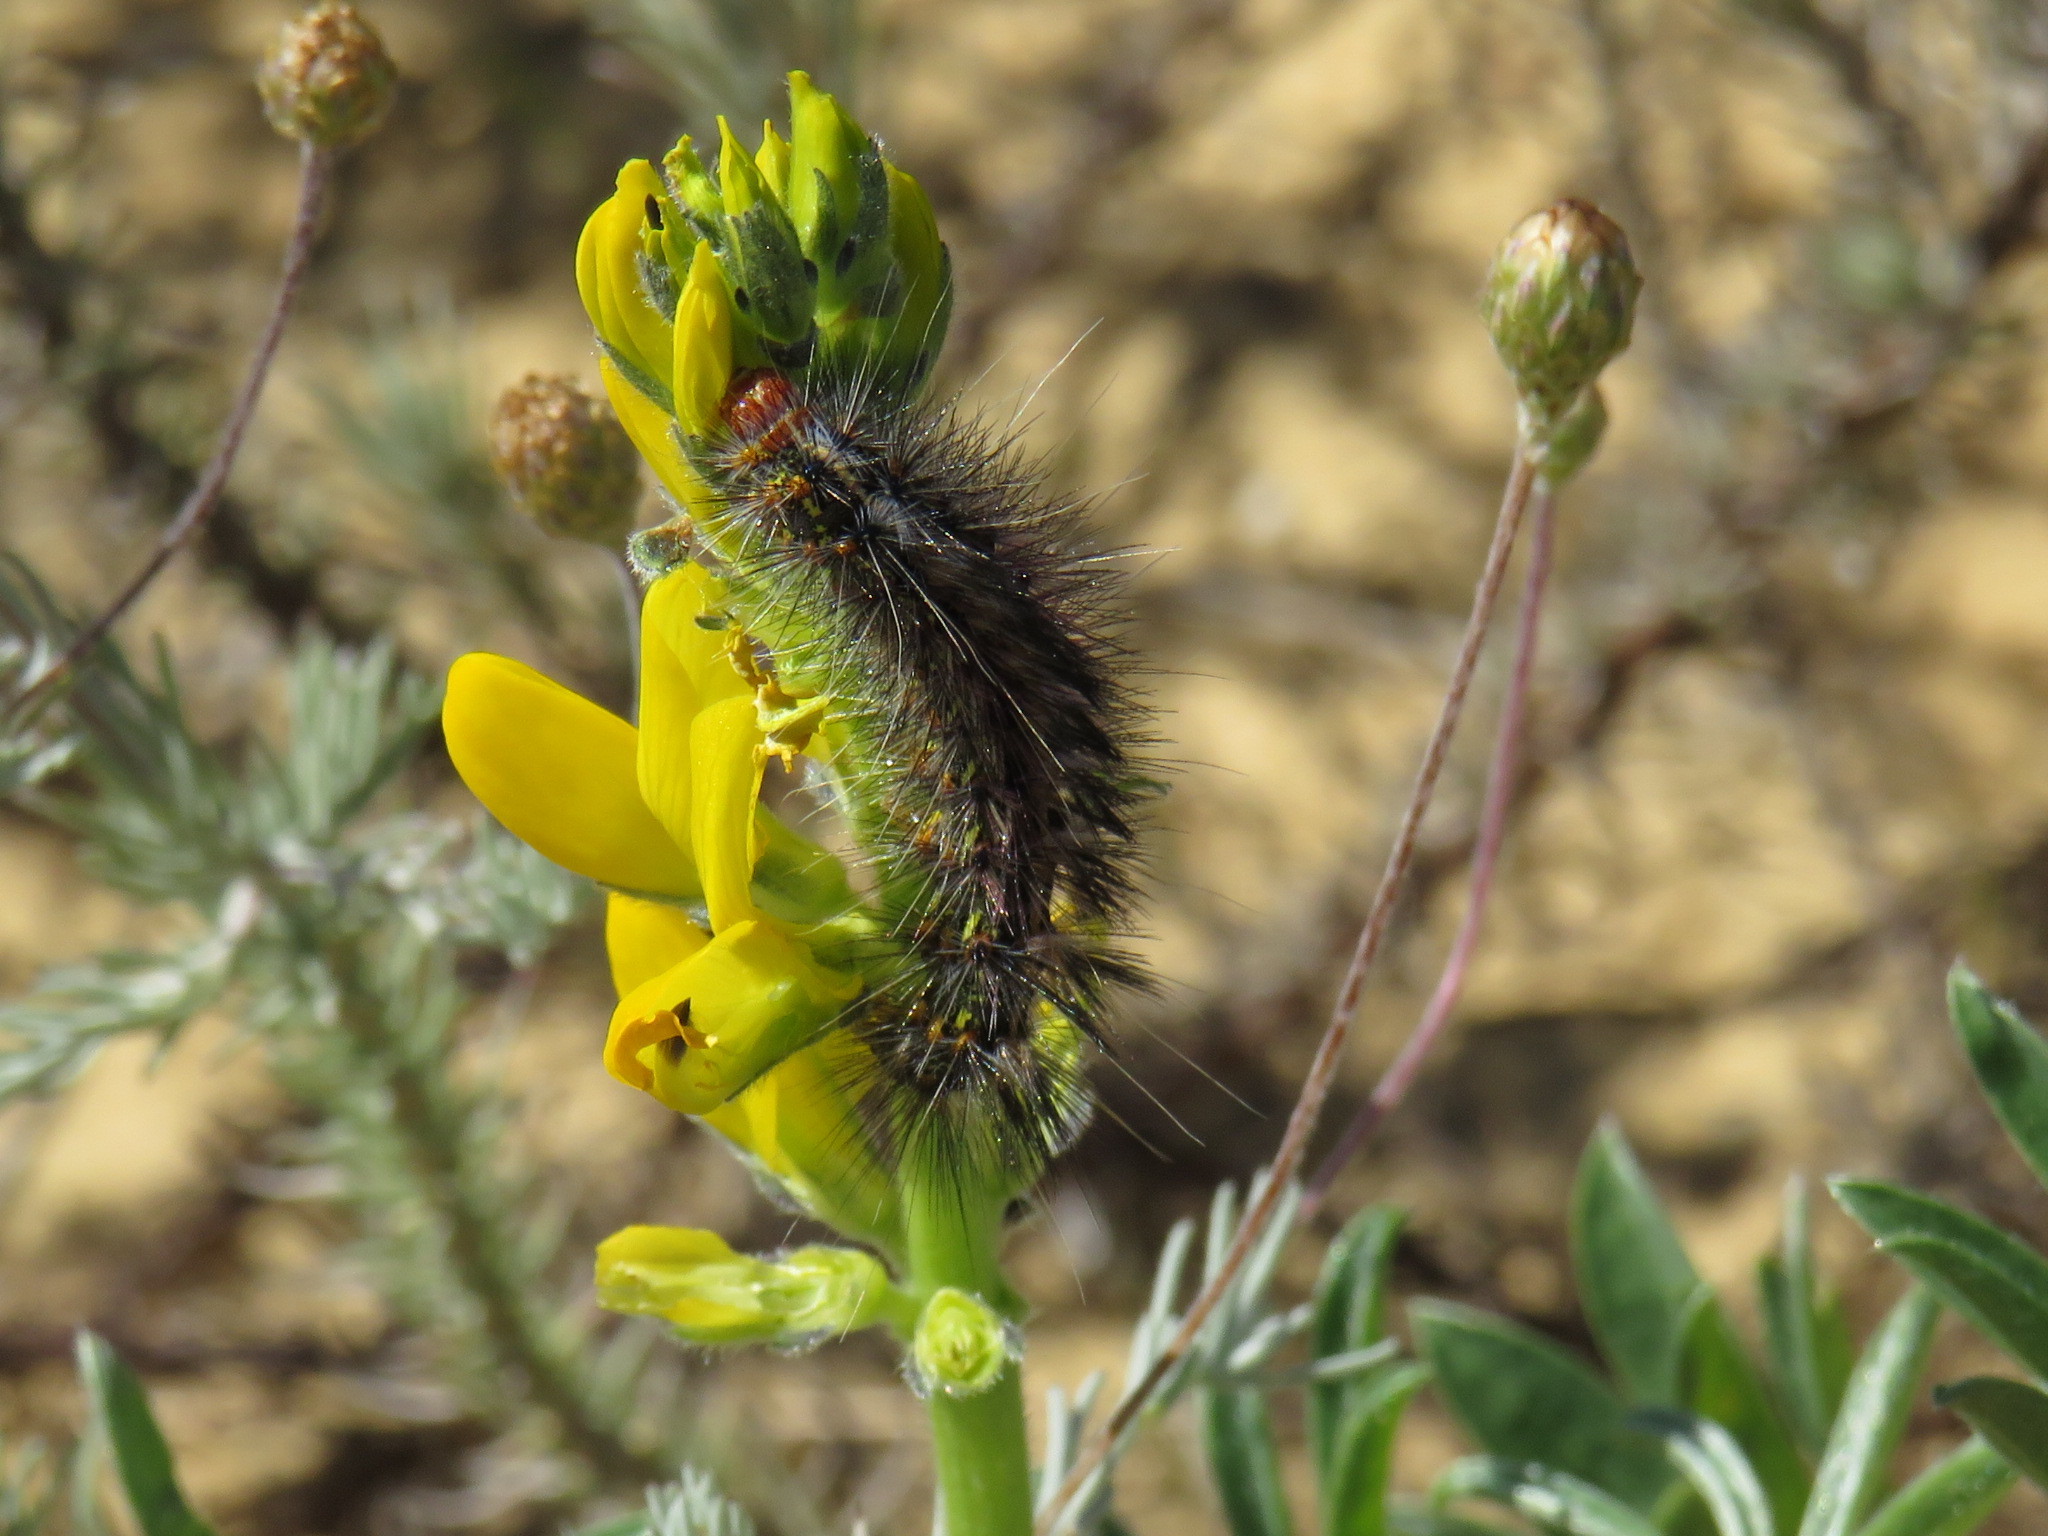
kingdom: Animalia
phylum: Arthropoda
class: Insecta
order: Lepidoptera
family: Erebidae
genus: Paralacydes
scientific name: Paralacydes vocula
